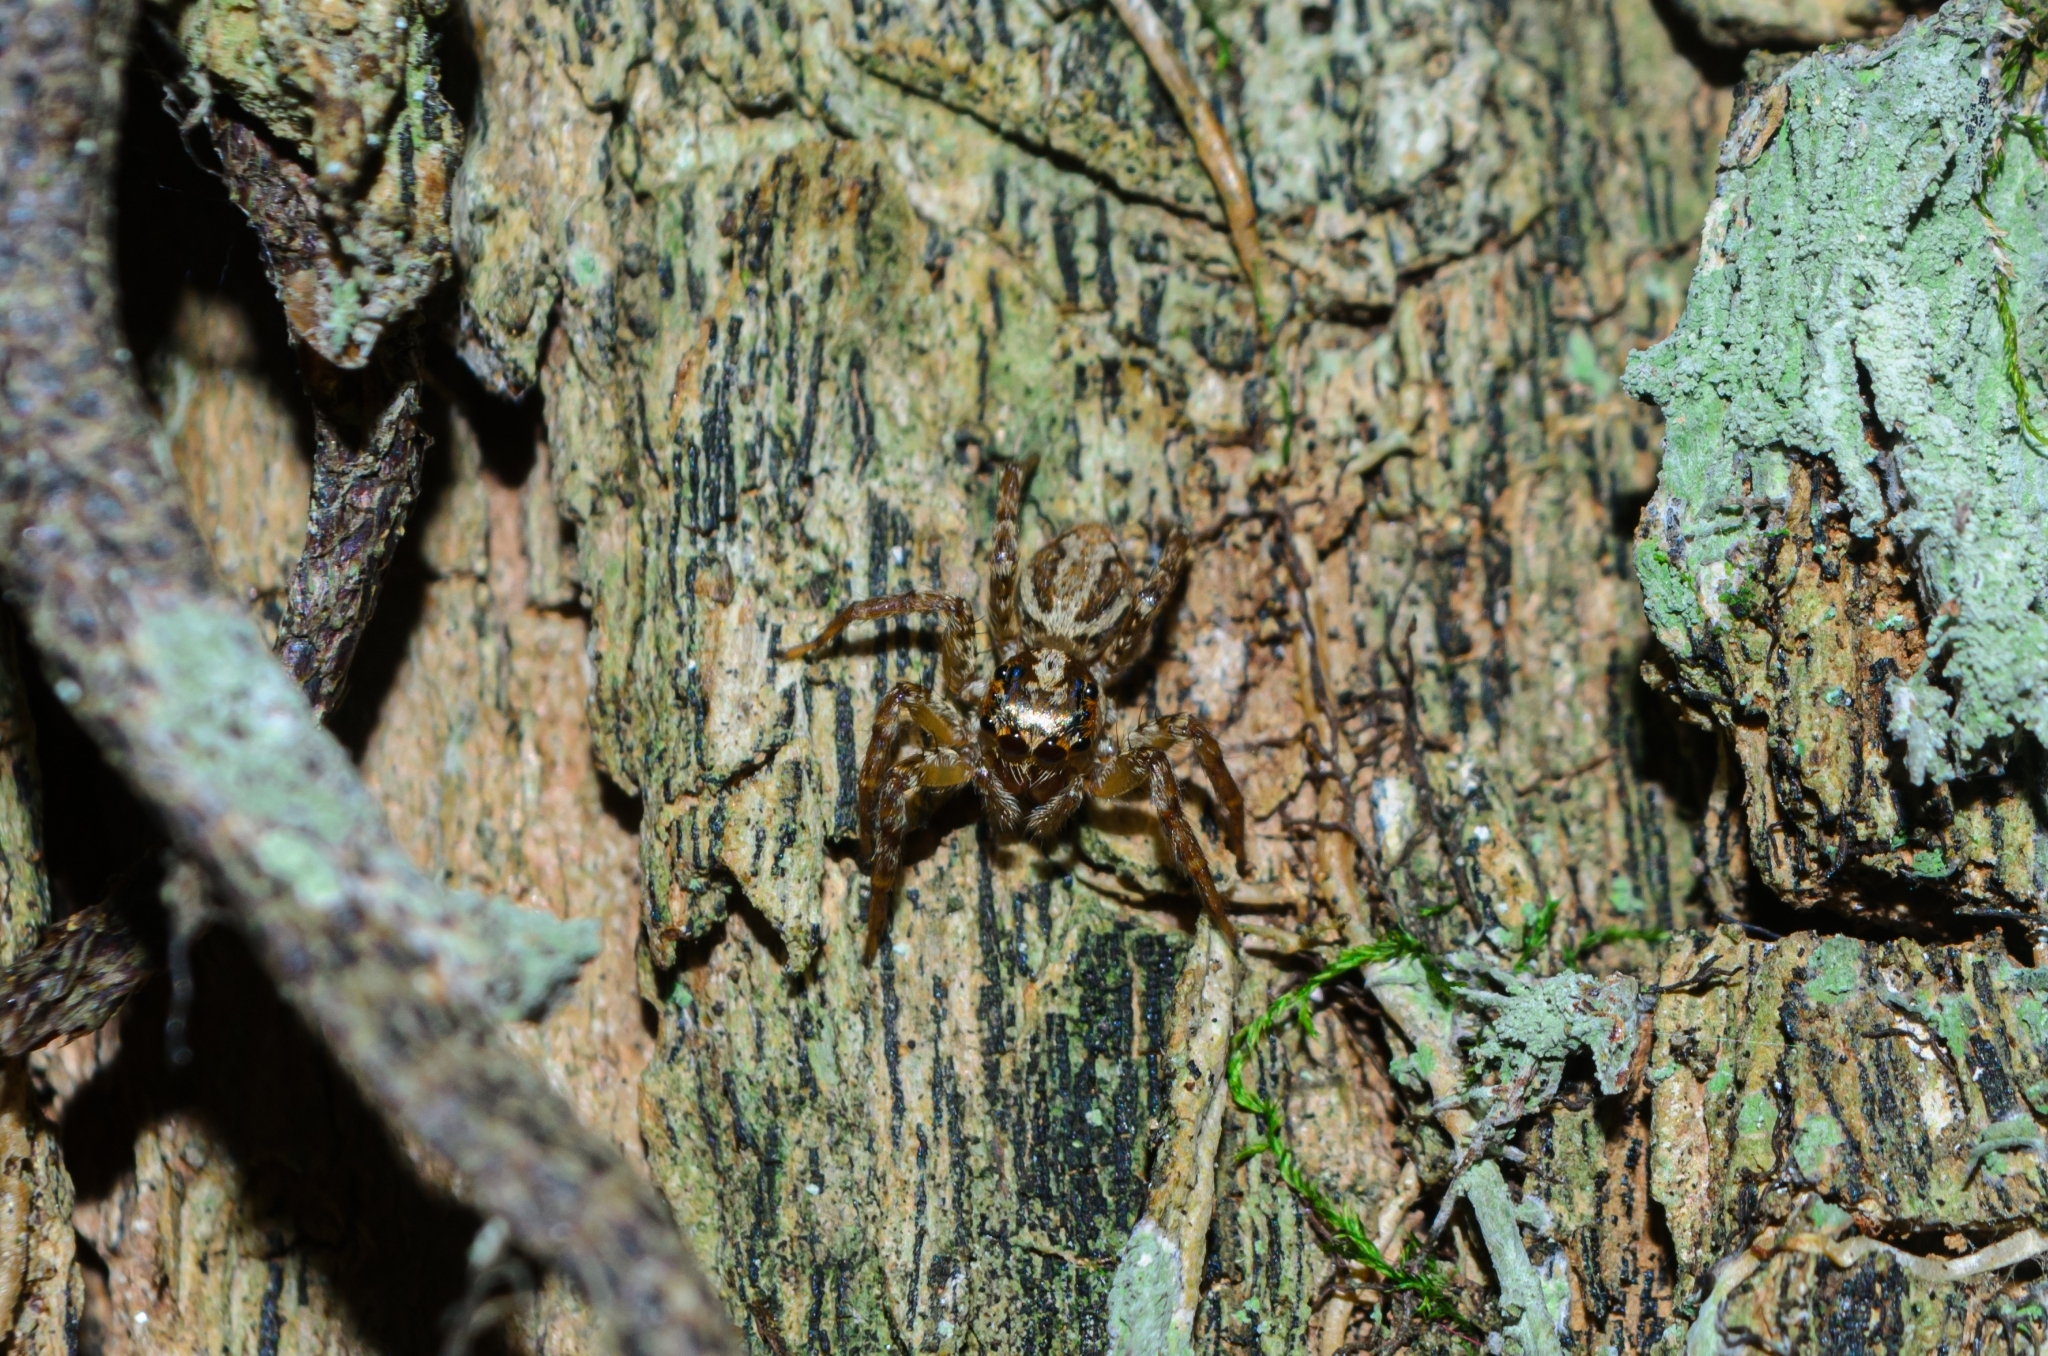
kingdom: Animalia
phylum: Arthropoda
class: Arachnida
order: Araneae
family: Salticidae
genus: Asaphobelis
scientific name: Asaphobelis physonychus
